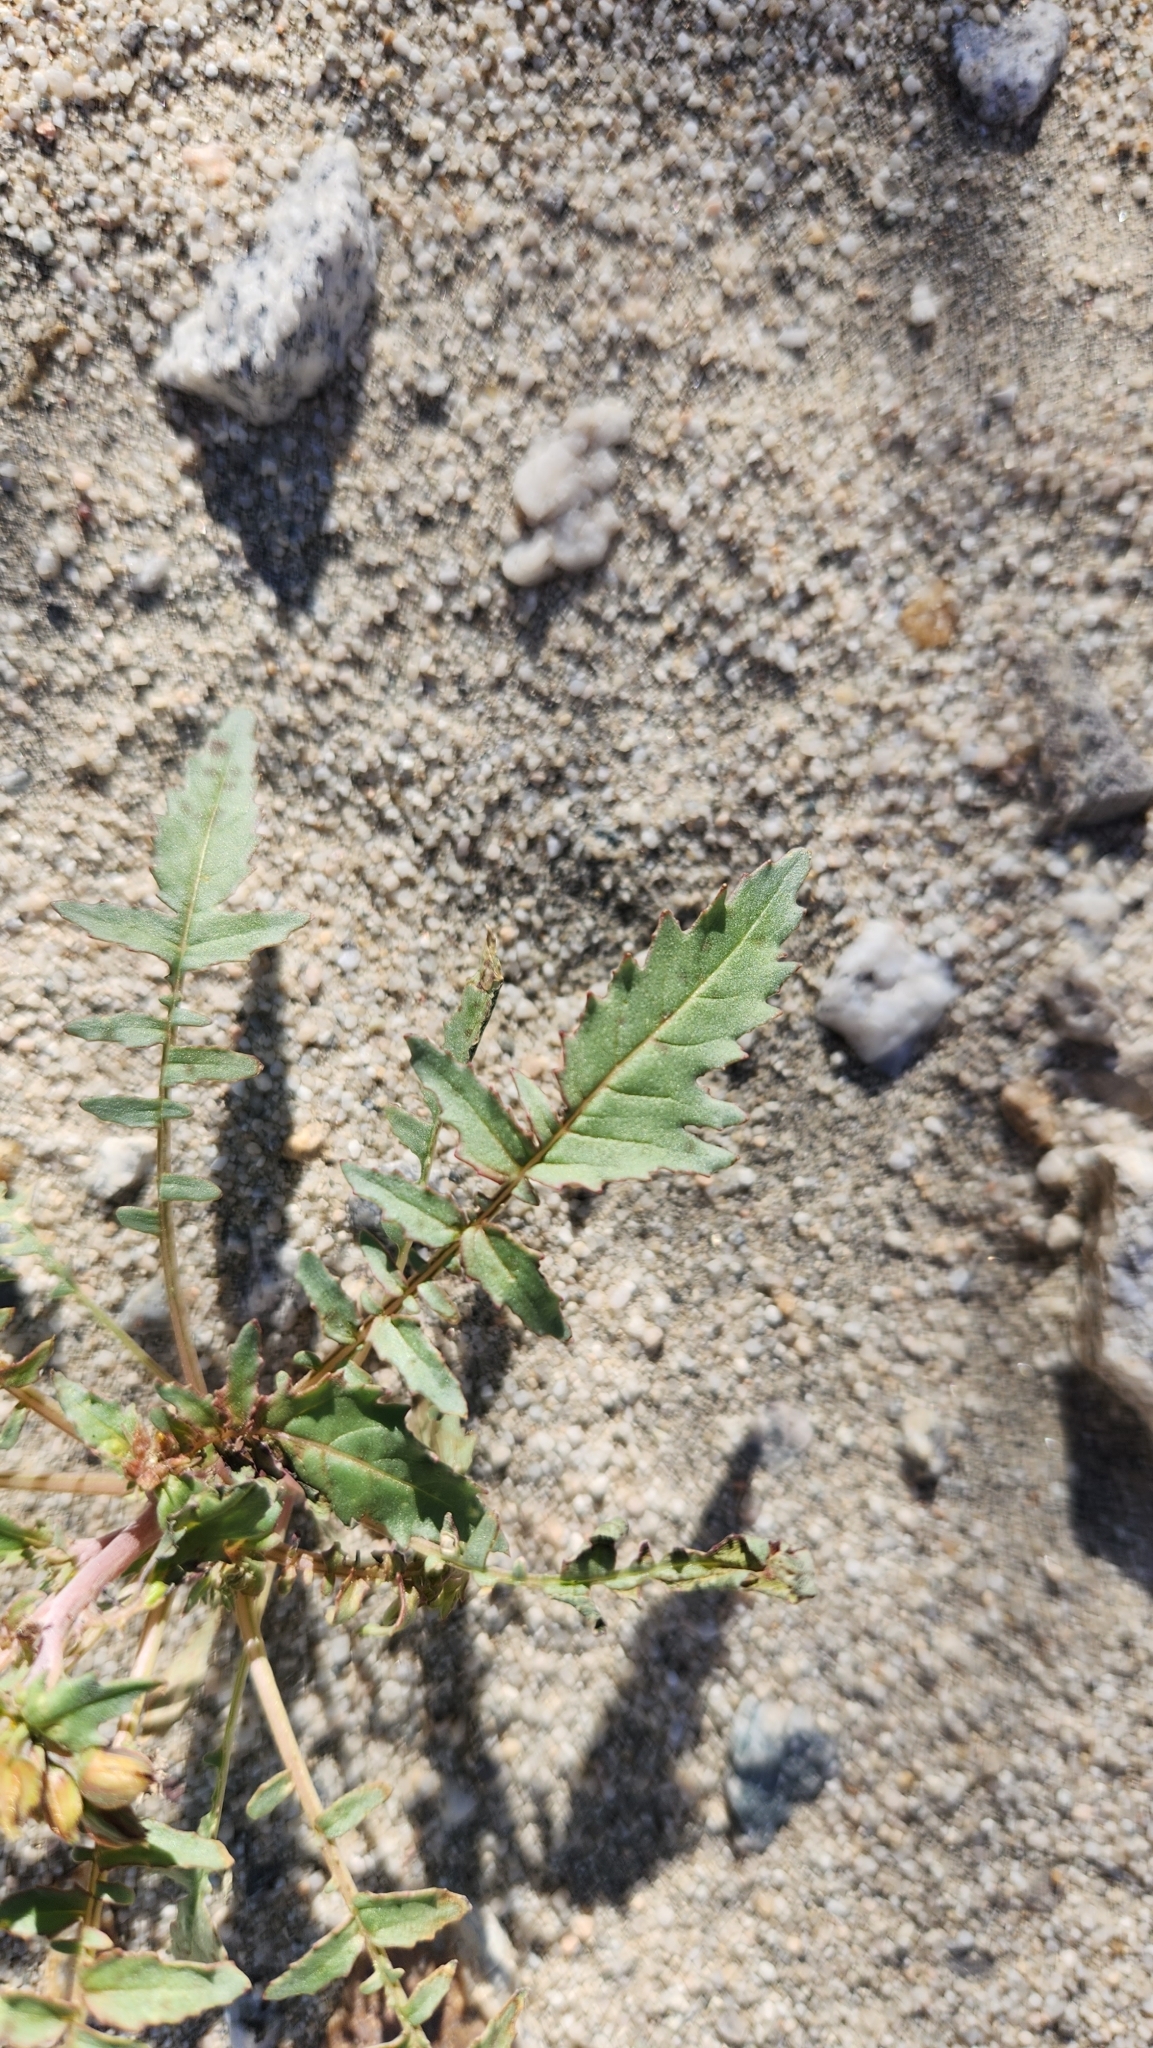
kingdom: Plantae
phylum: Tracheophyta
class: Magnoliopsida
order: Myrtales
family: Onagraceae
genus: Chylismia
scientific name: Chylismia claviformis
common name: Browneyes
